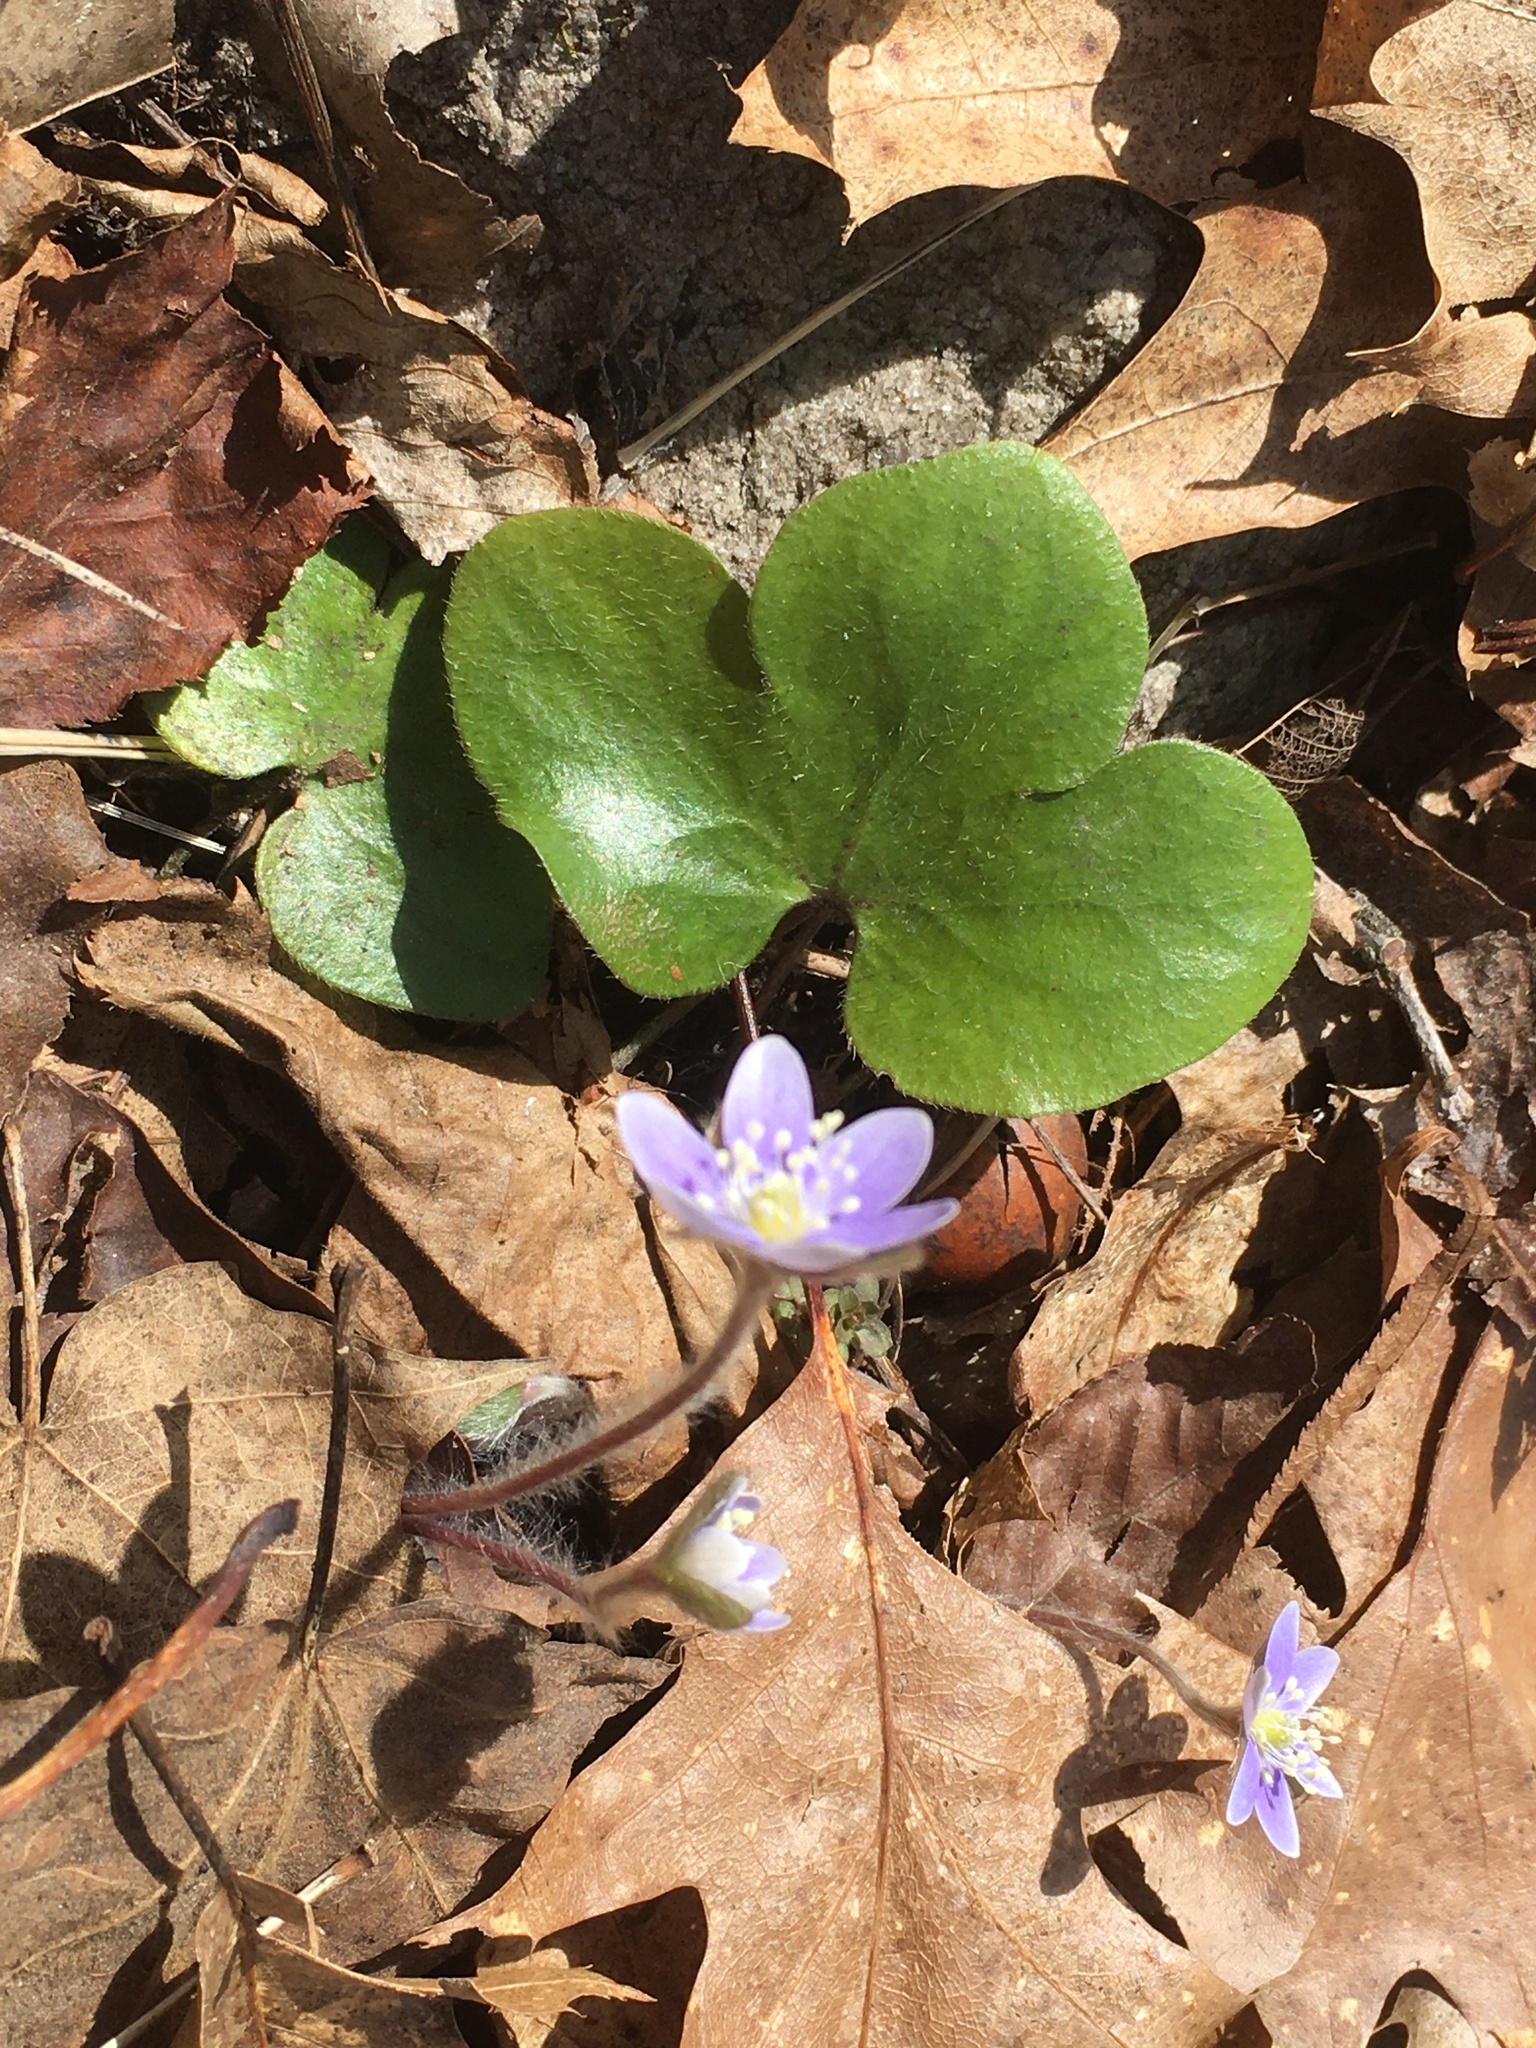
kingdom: Plantae
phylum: Tracheophyta
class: Magnoliopsida
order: Ranunculales
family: Ranunculaceae
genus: Hepatica
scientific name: Hepatica americana
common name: American hepatica
